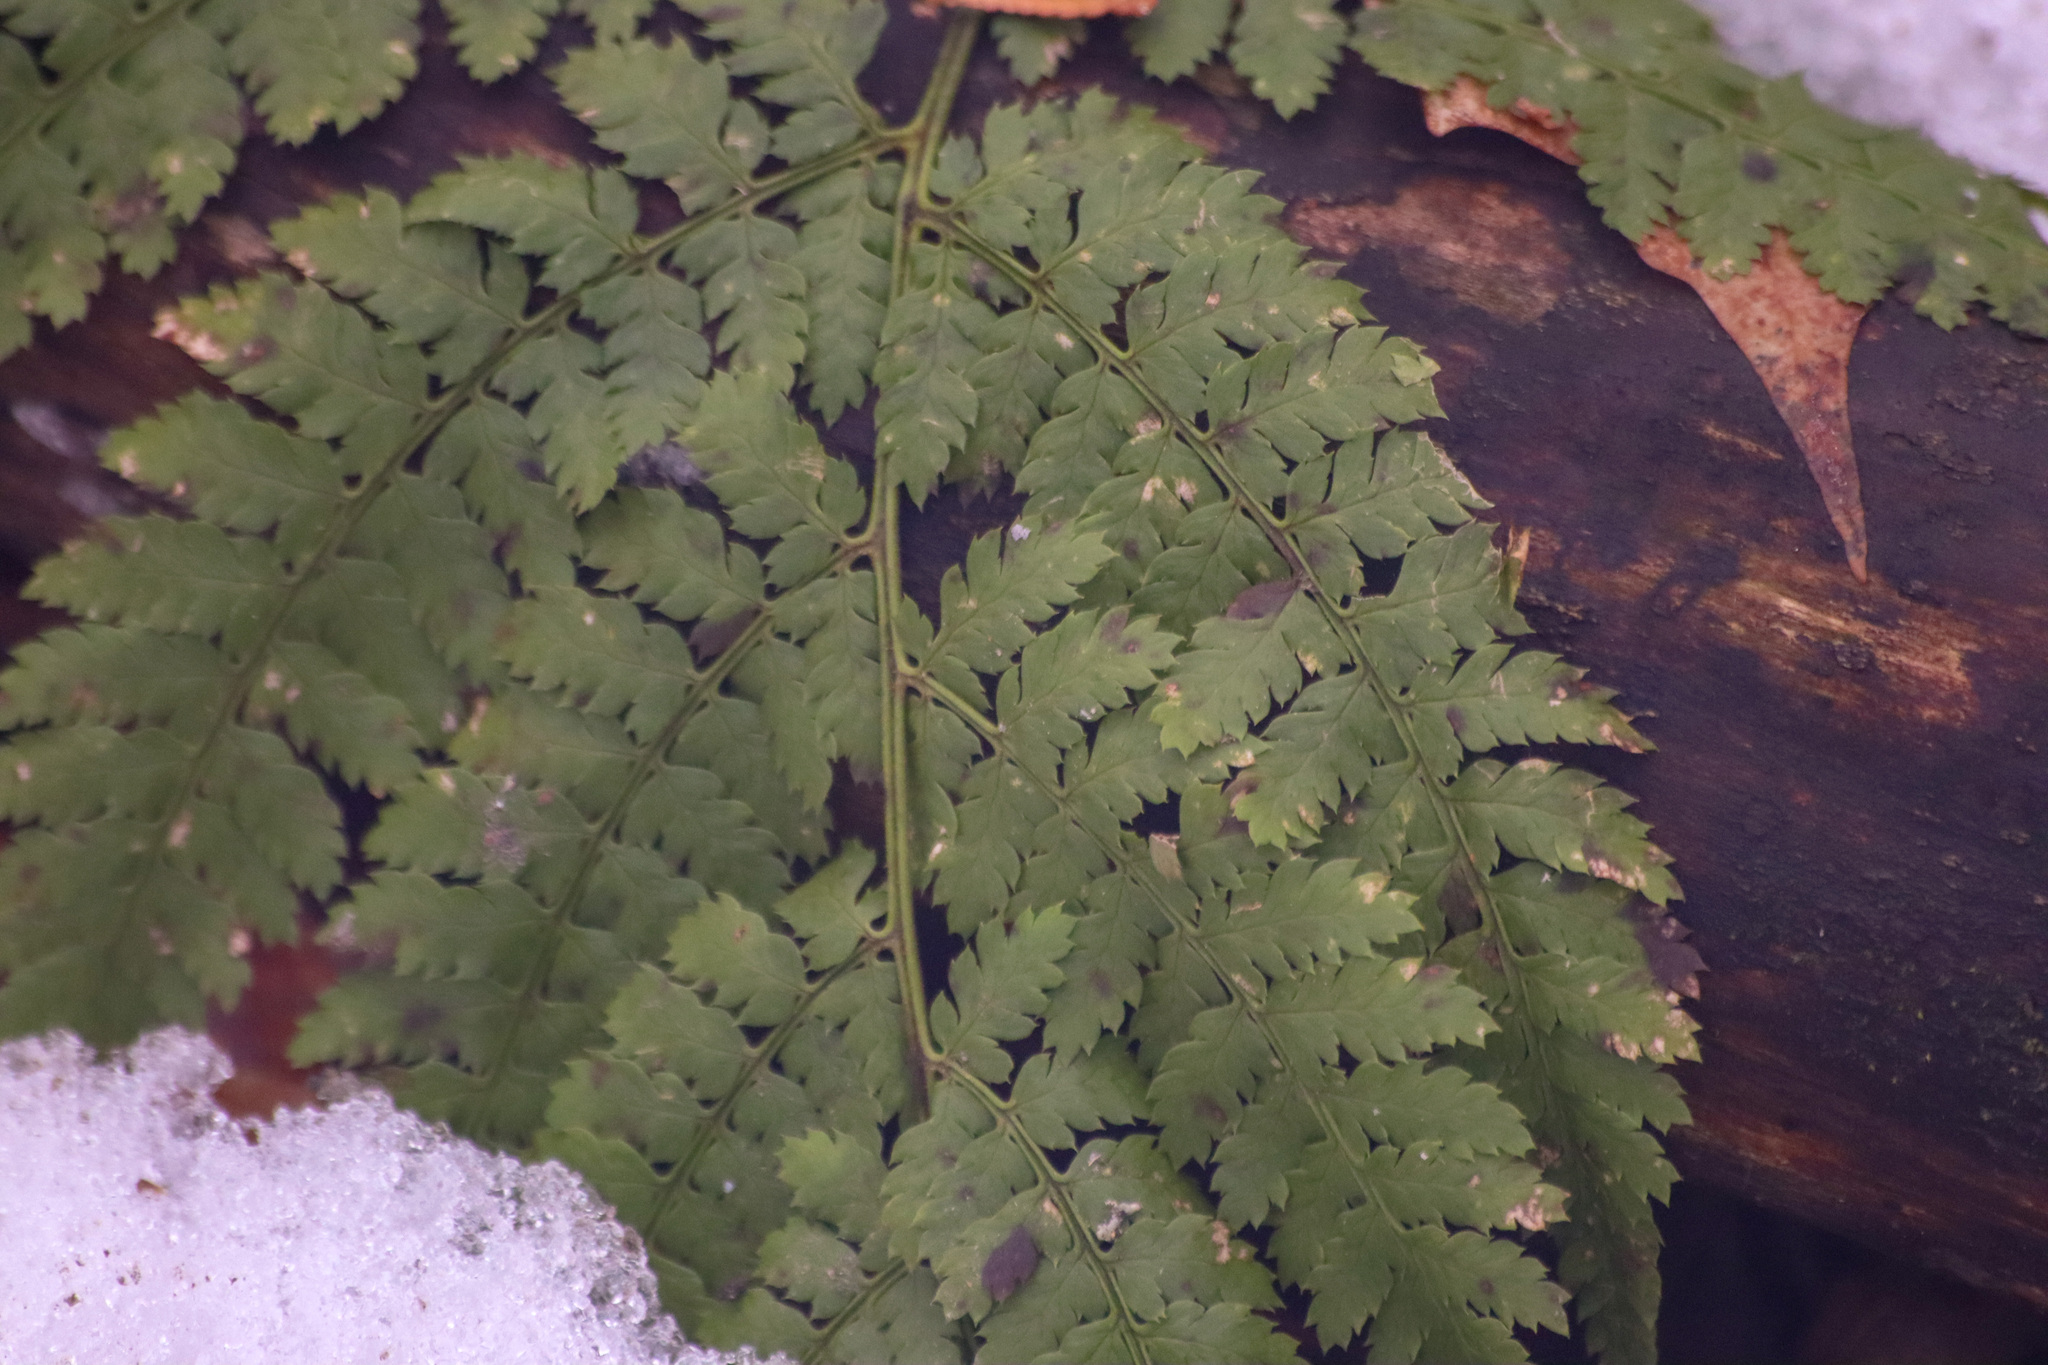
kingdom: Plantae
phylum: Tracheophyta
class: Polypodiopsida
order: Polypodiales
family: Dryopteridaceae
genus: Dryopteris
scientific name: Dryopteris intermedia
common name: Evergreen wood fern
